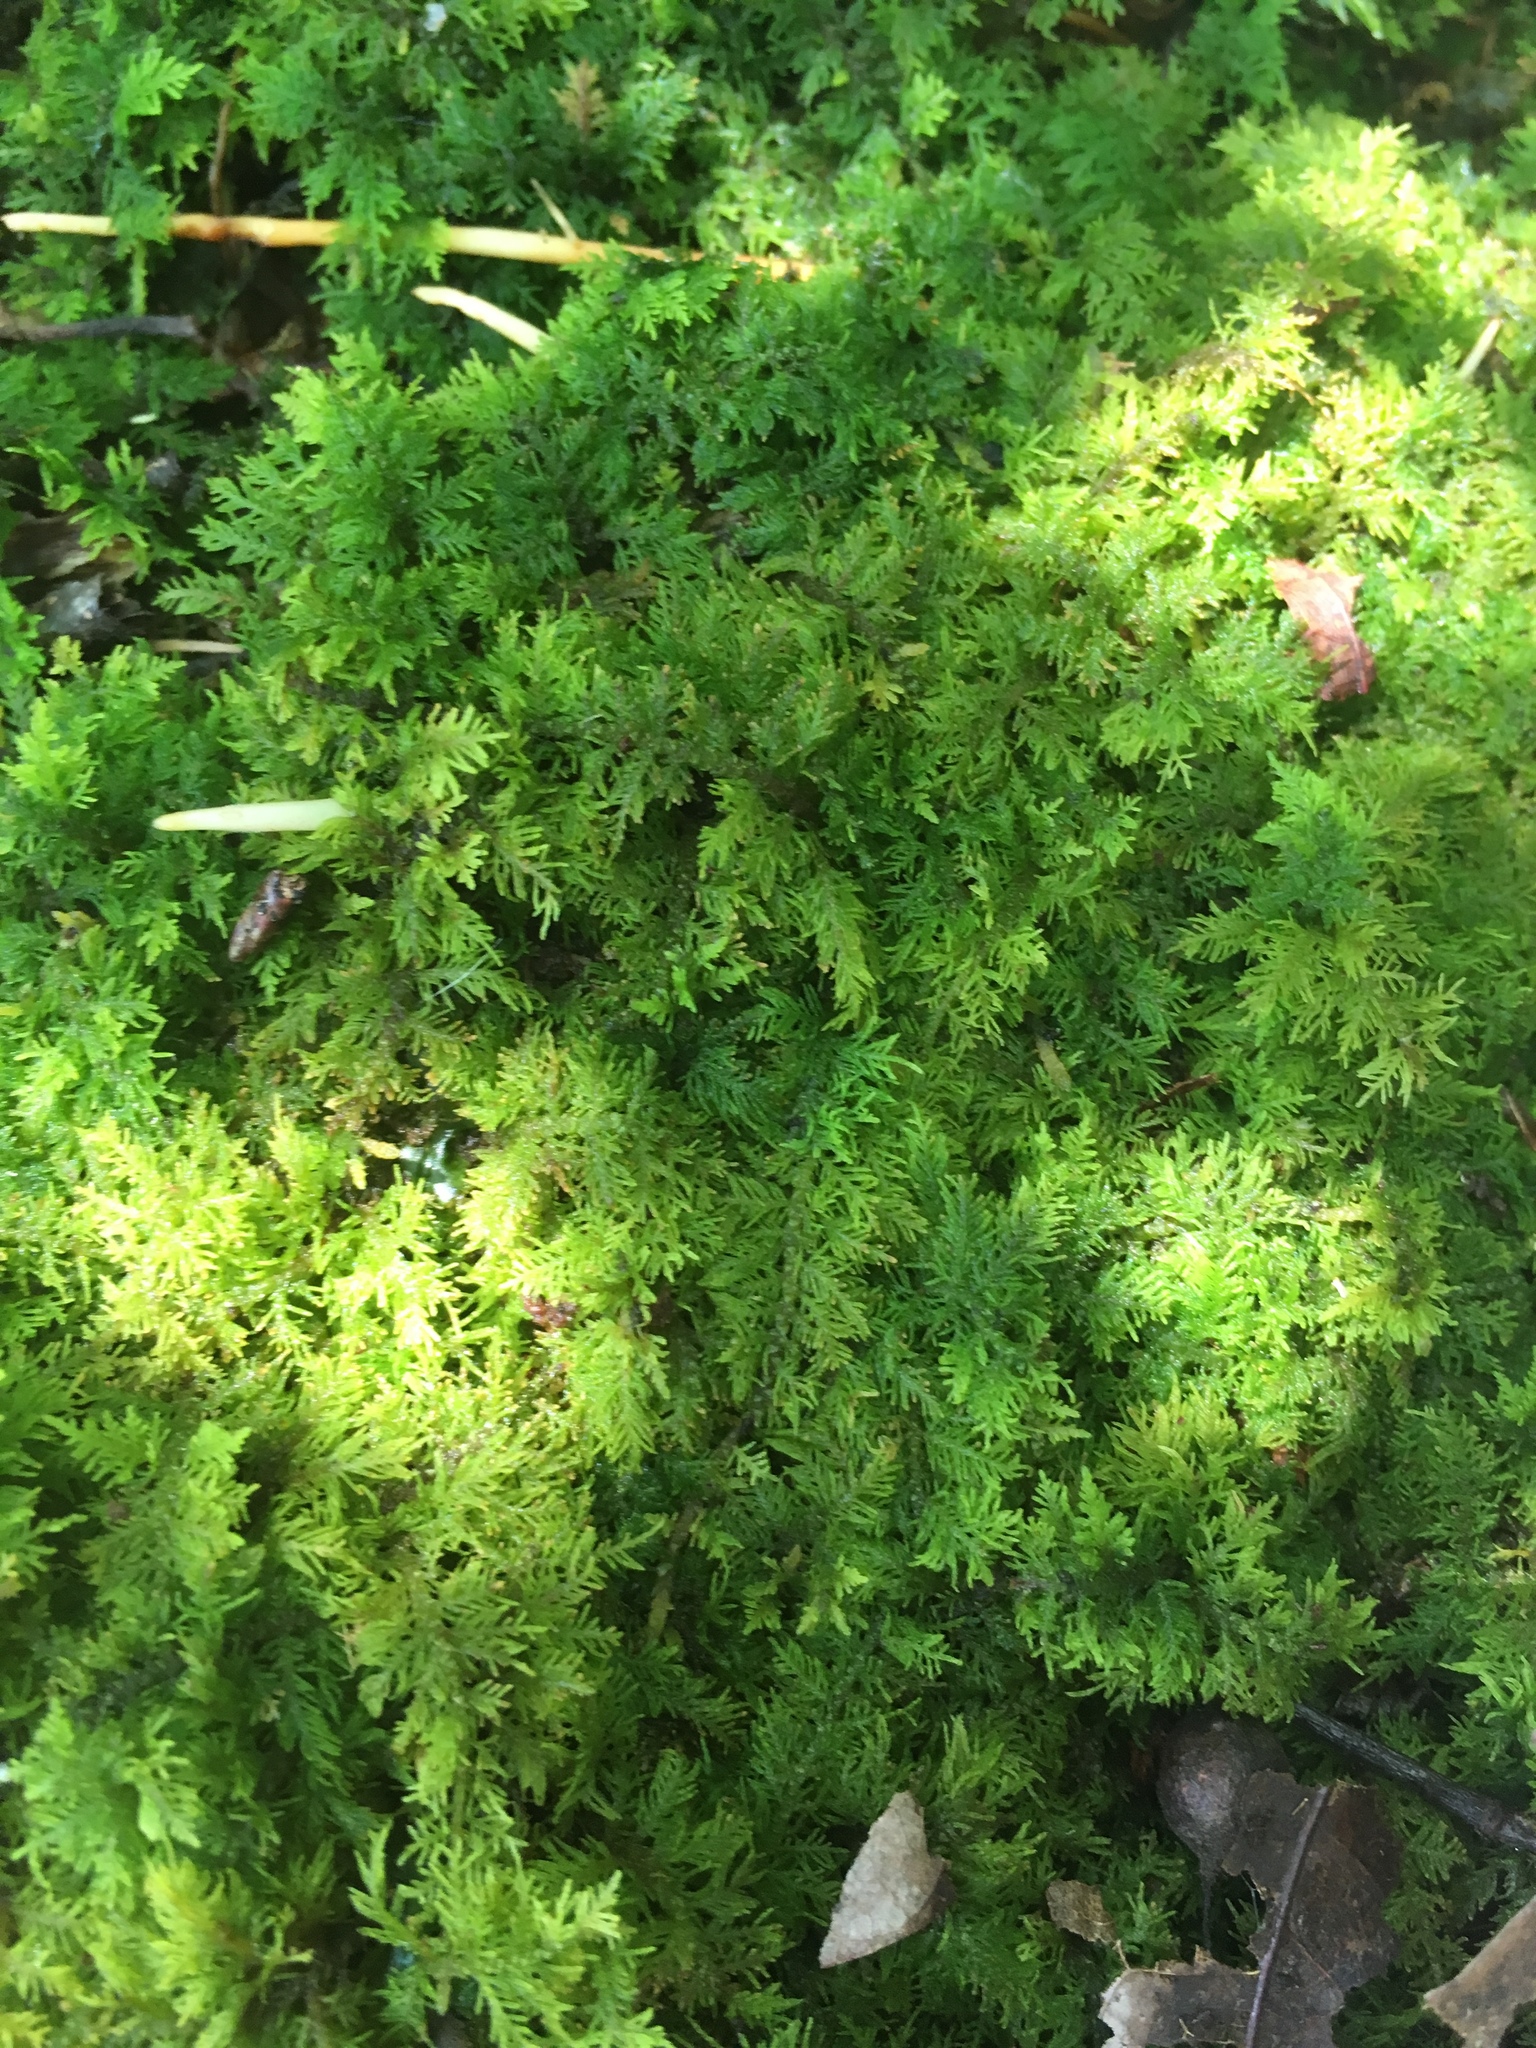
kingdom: Plantae
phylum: Bryophyta
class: Bryopsida
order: Hypnales
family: Thuidiaceae
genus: Thuidium
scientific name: Thuidium delicatulum
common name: Delicate fern moss
